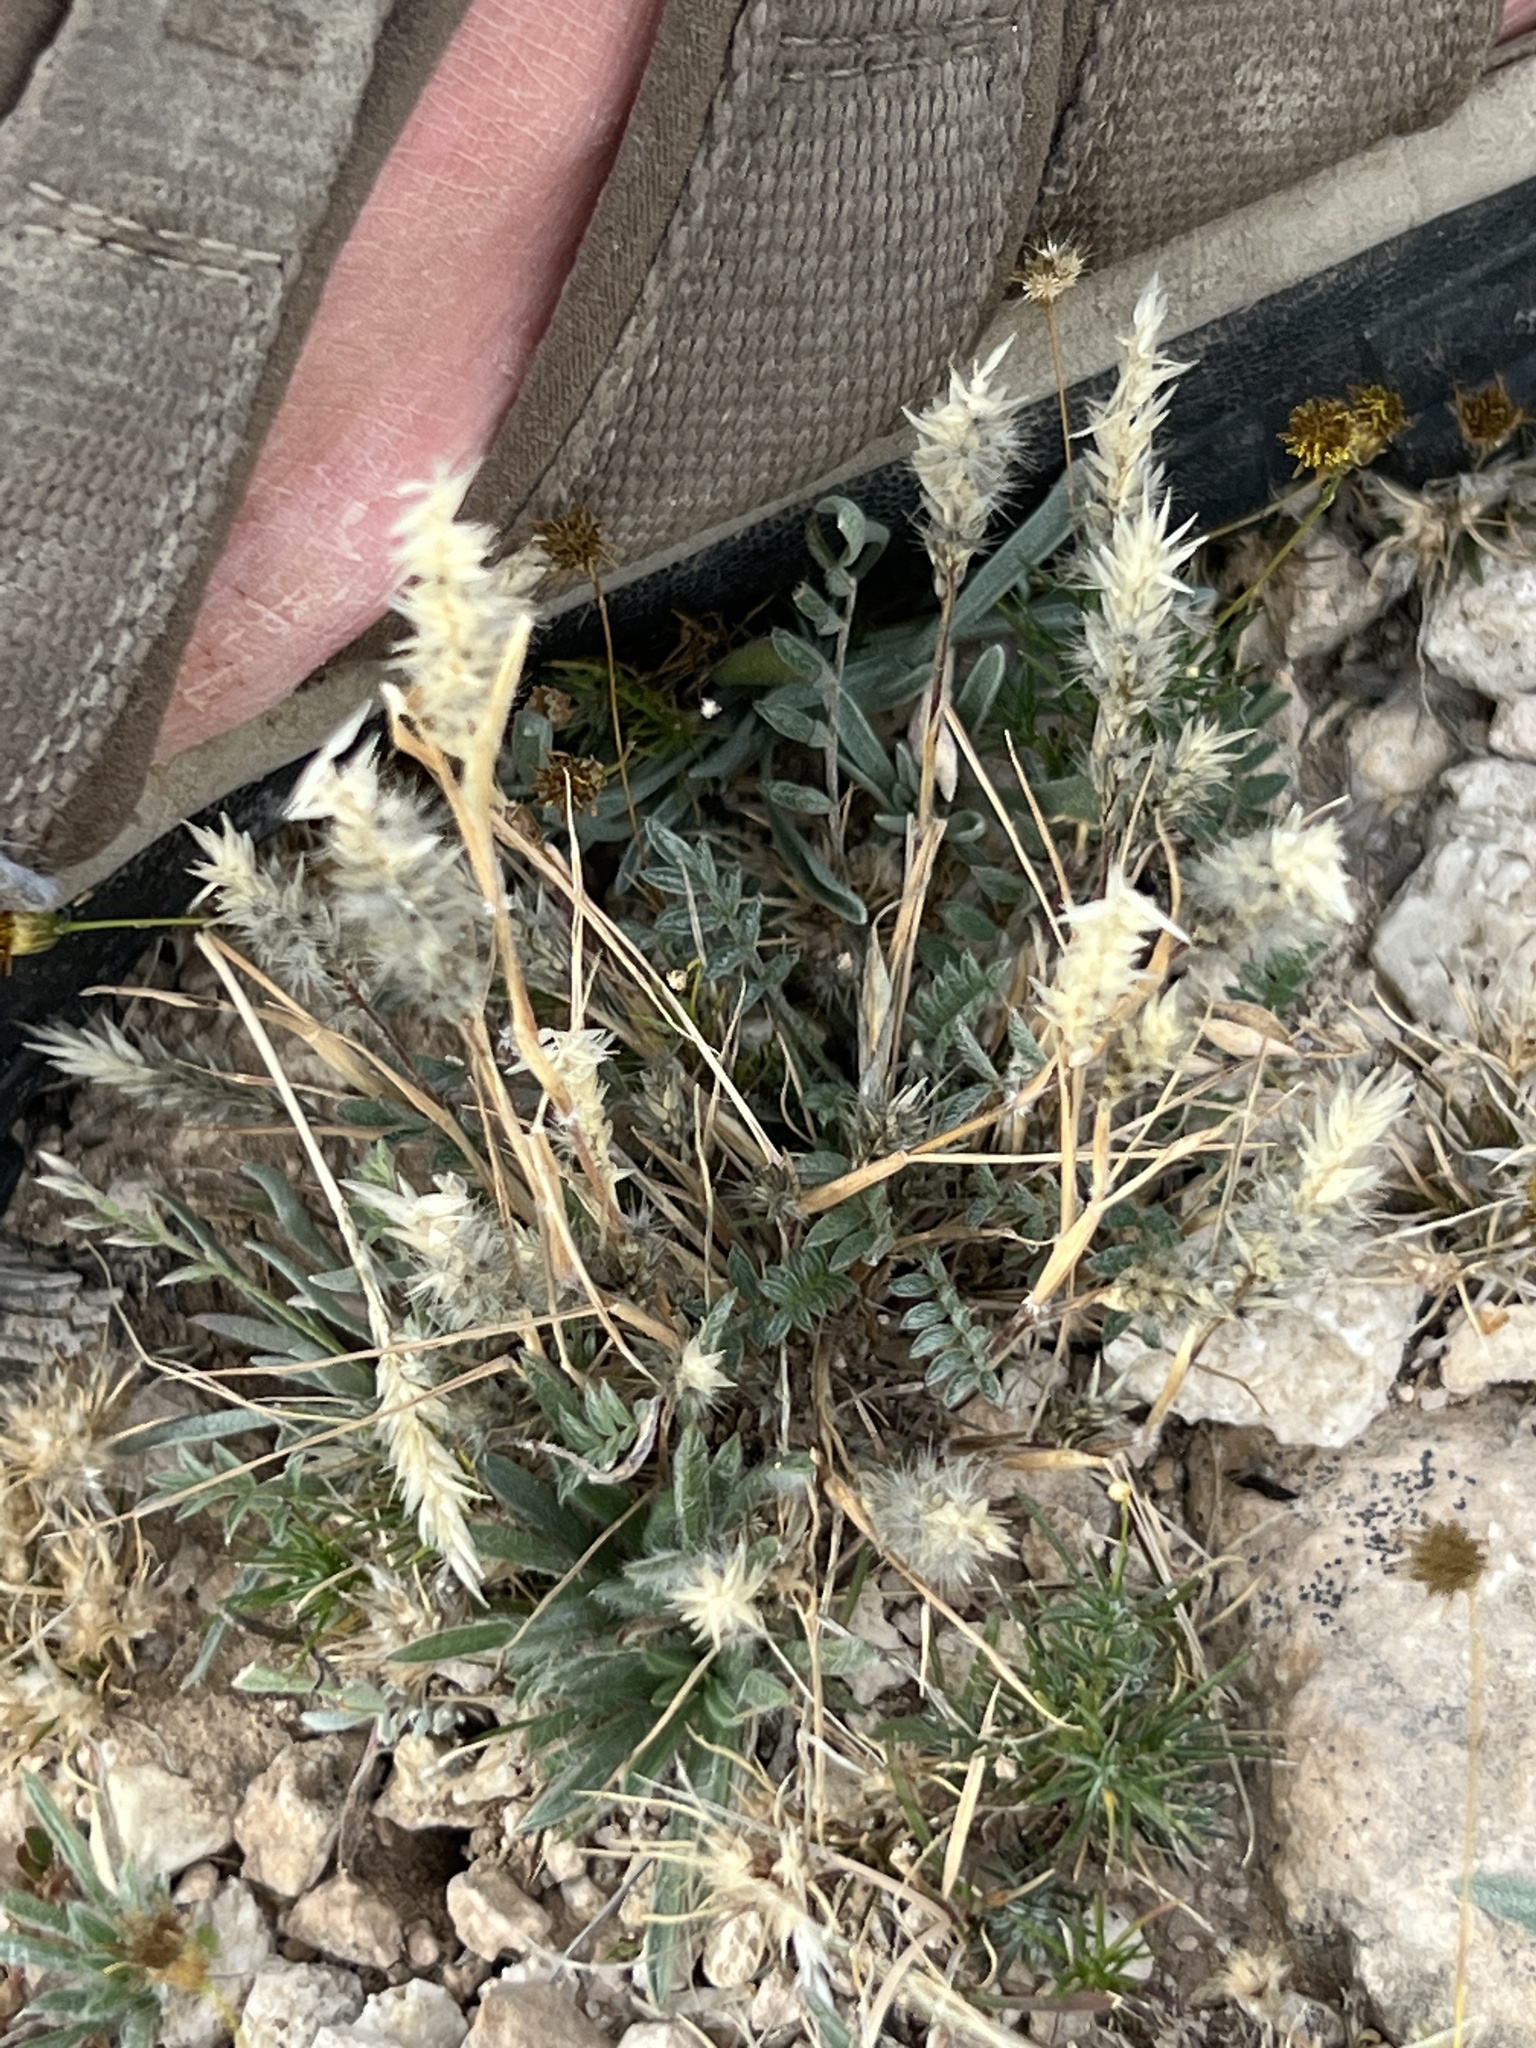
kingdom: Plantae
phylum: Tracheophyta
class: Liliopsida
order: Poales
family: Poaceae
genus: Enneapogon
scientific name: Enneapogon desvauxii
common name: Feather pappus grass
